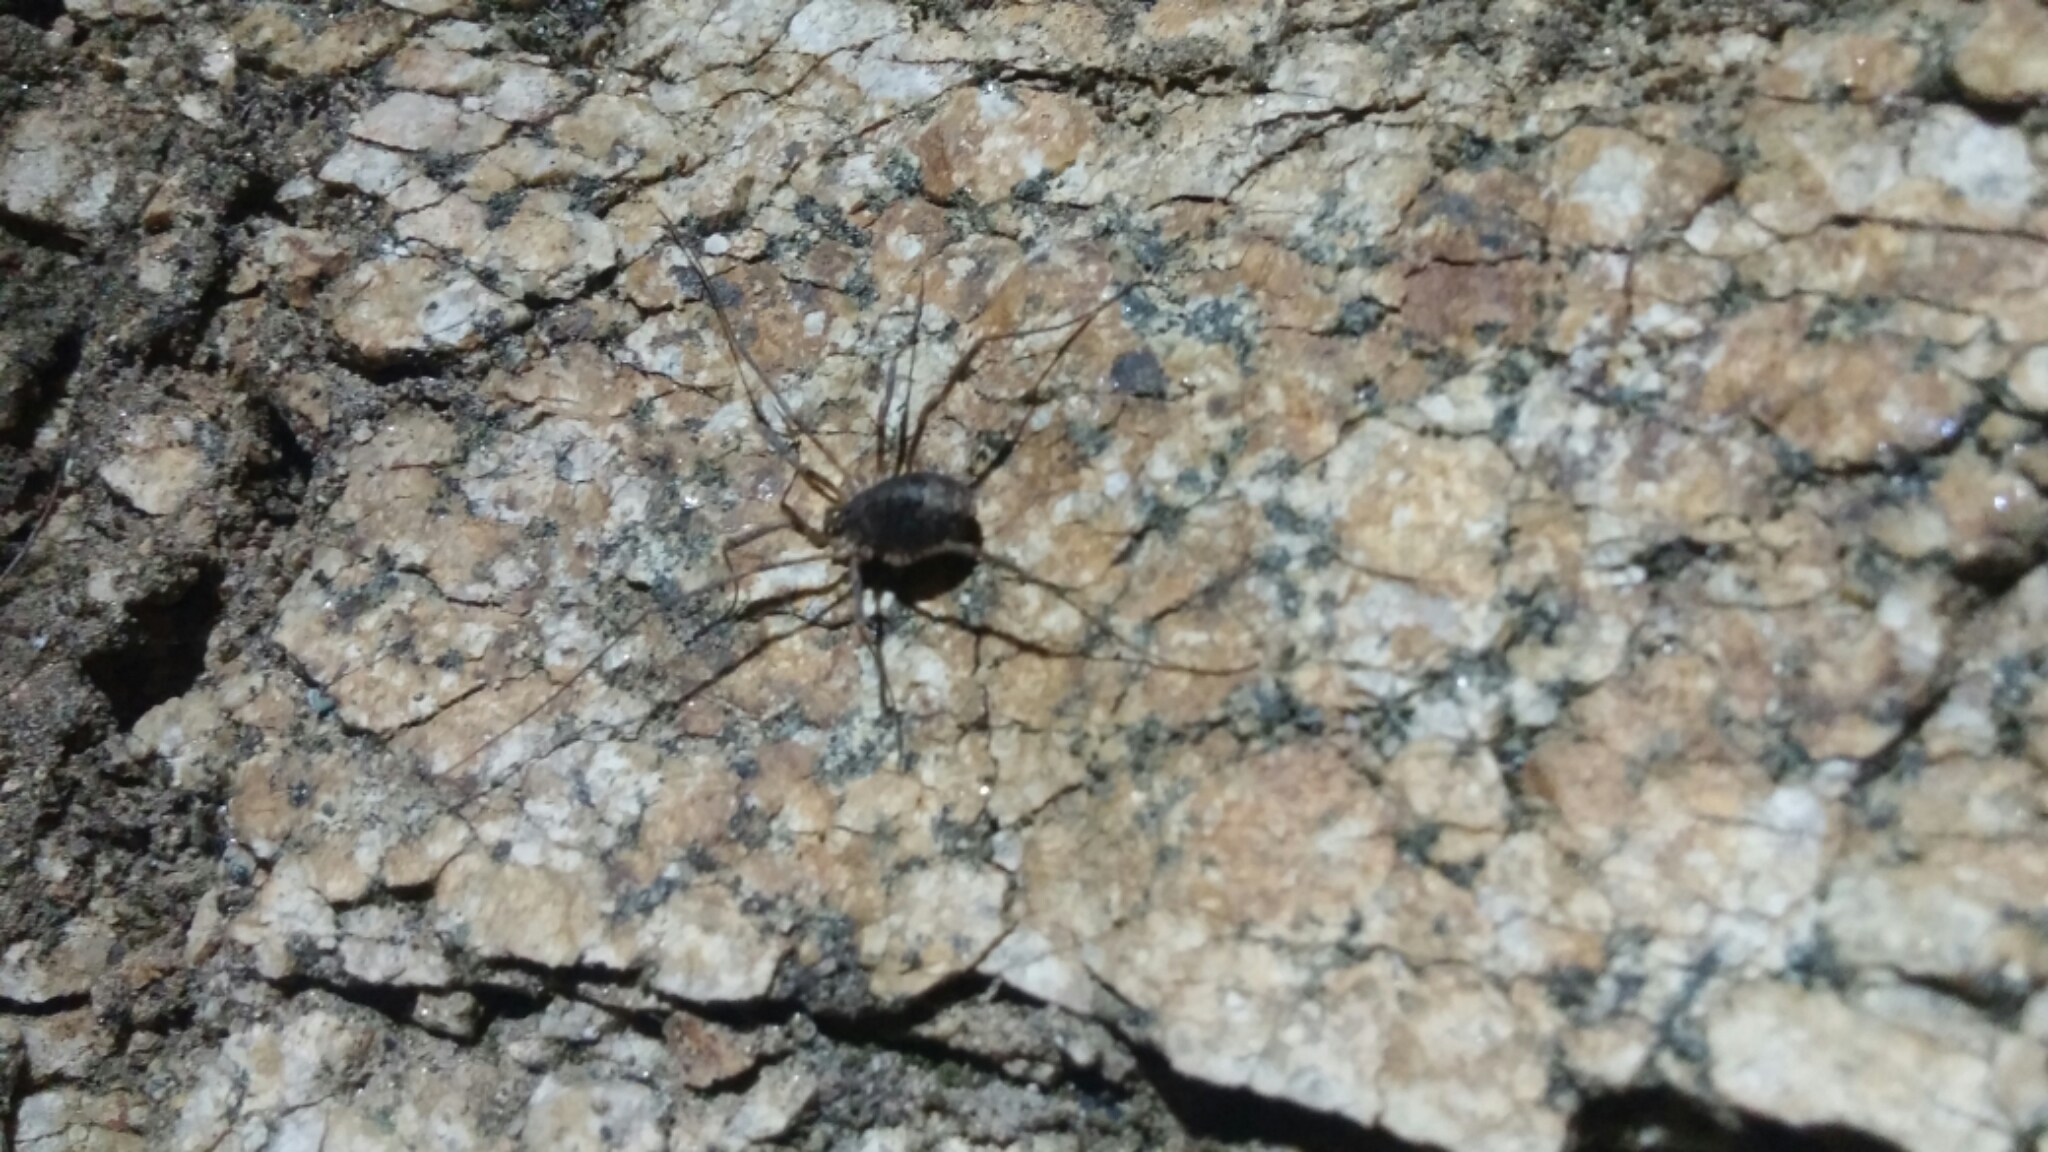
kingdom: Animalia
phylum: Arthropoda
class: Arachnida
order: Opiliones
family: Protolophidae
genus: Protolophus
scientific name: Protolophus singularis
